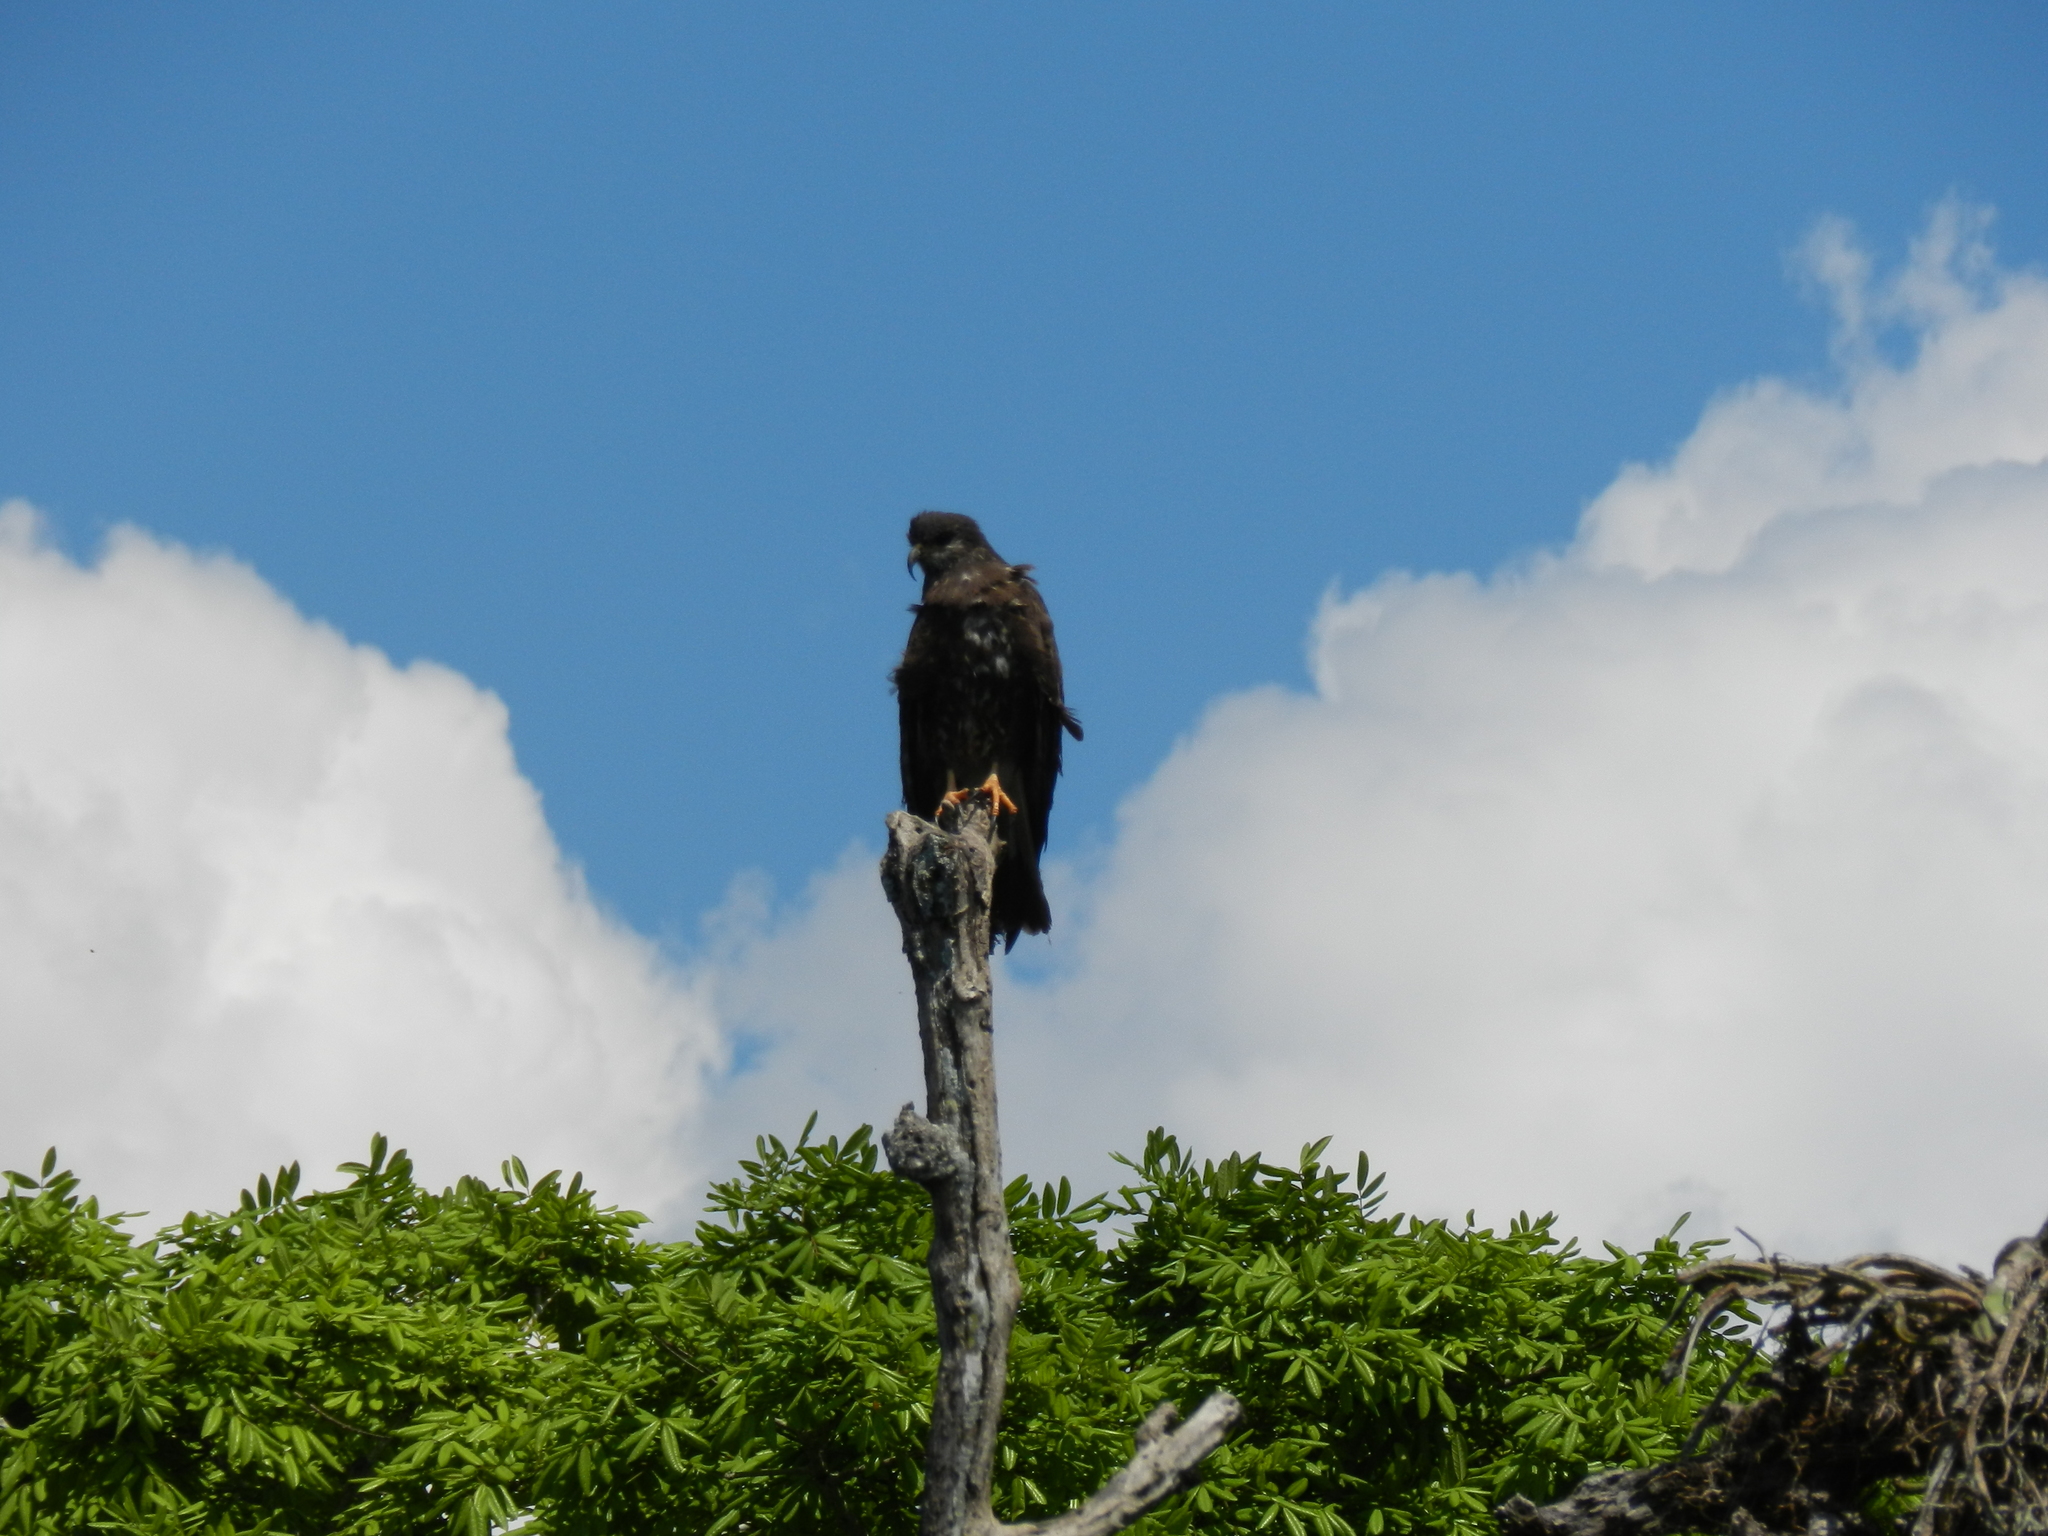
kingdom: Animalia
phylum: Chordata
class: Aves
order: Accipitriformes
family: Accipitridae
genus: Rostrhamus
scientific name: Rostrhamus sociabilis
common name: Snail kite
